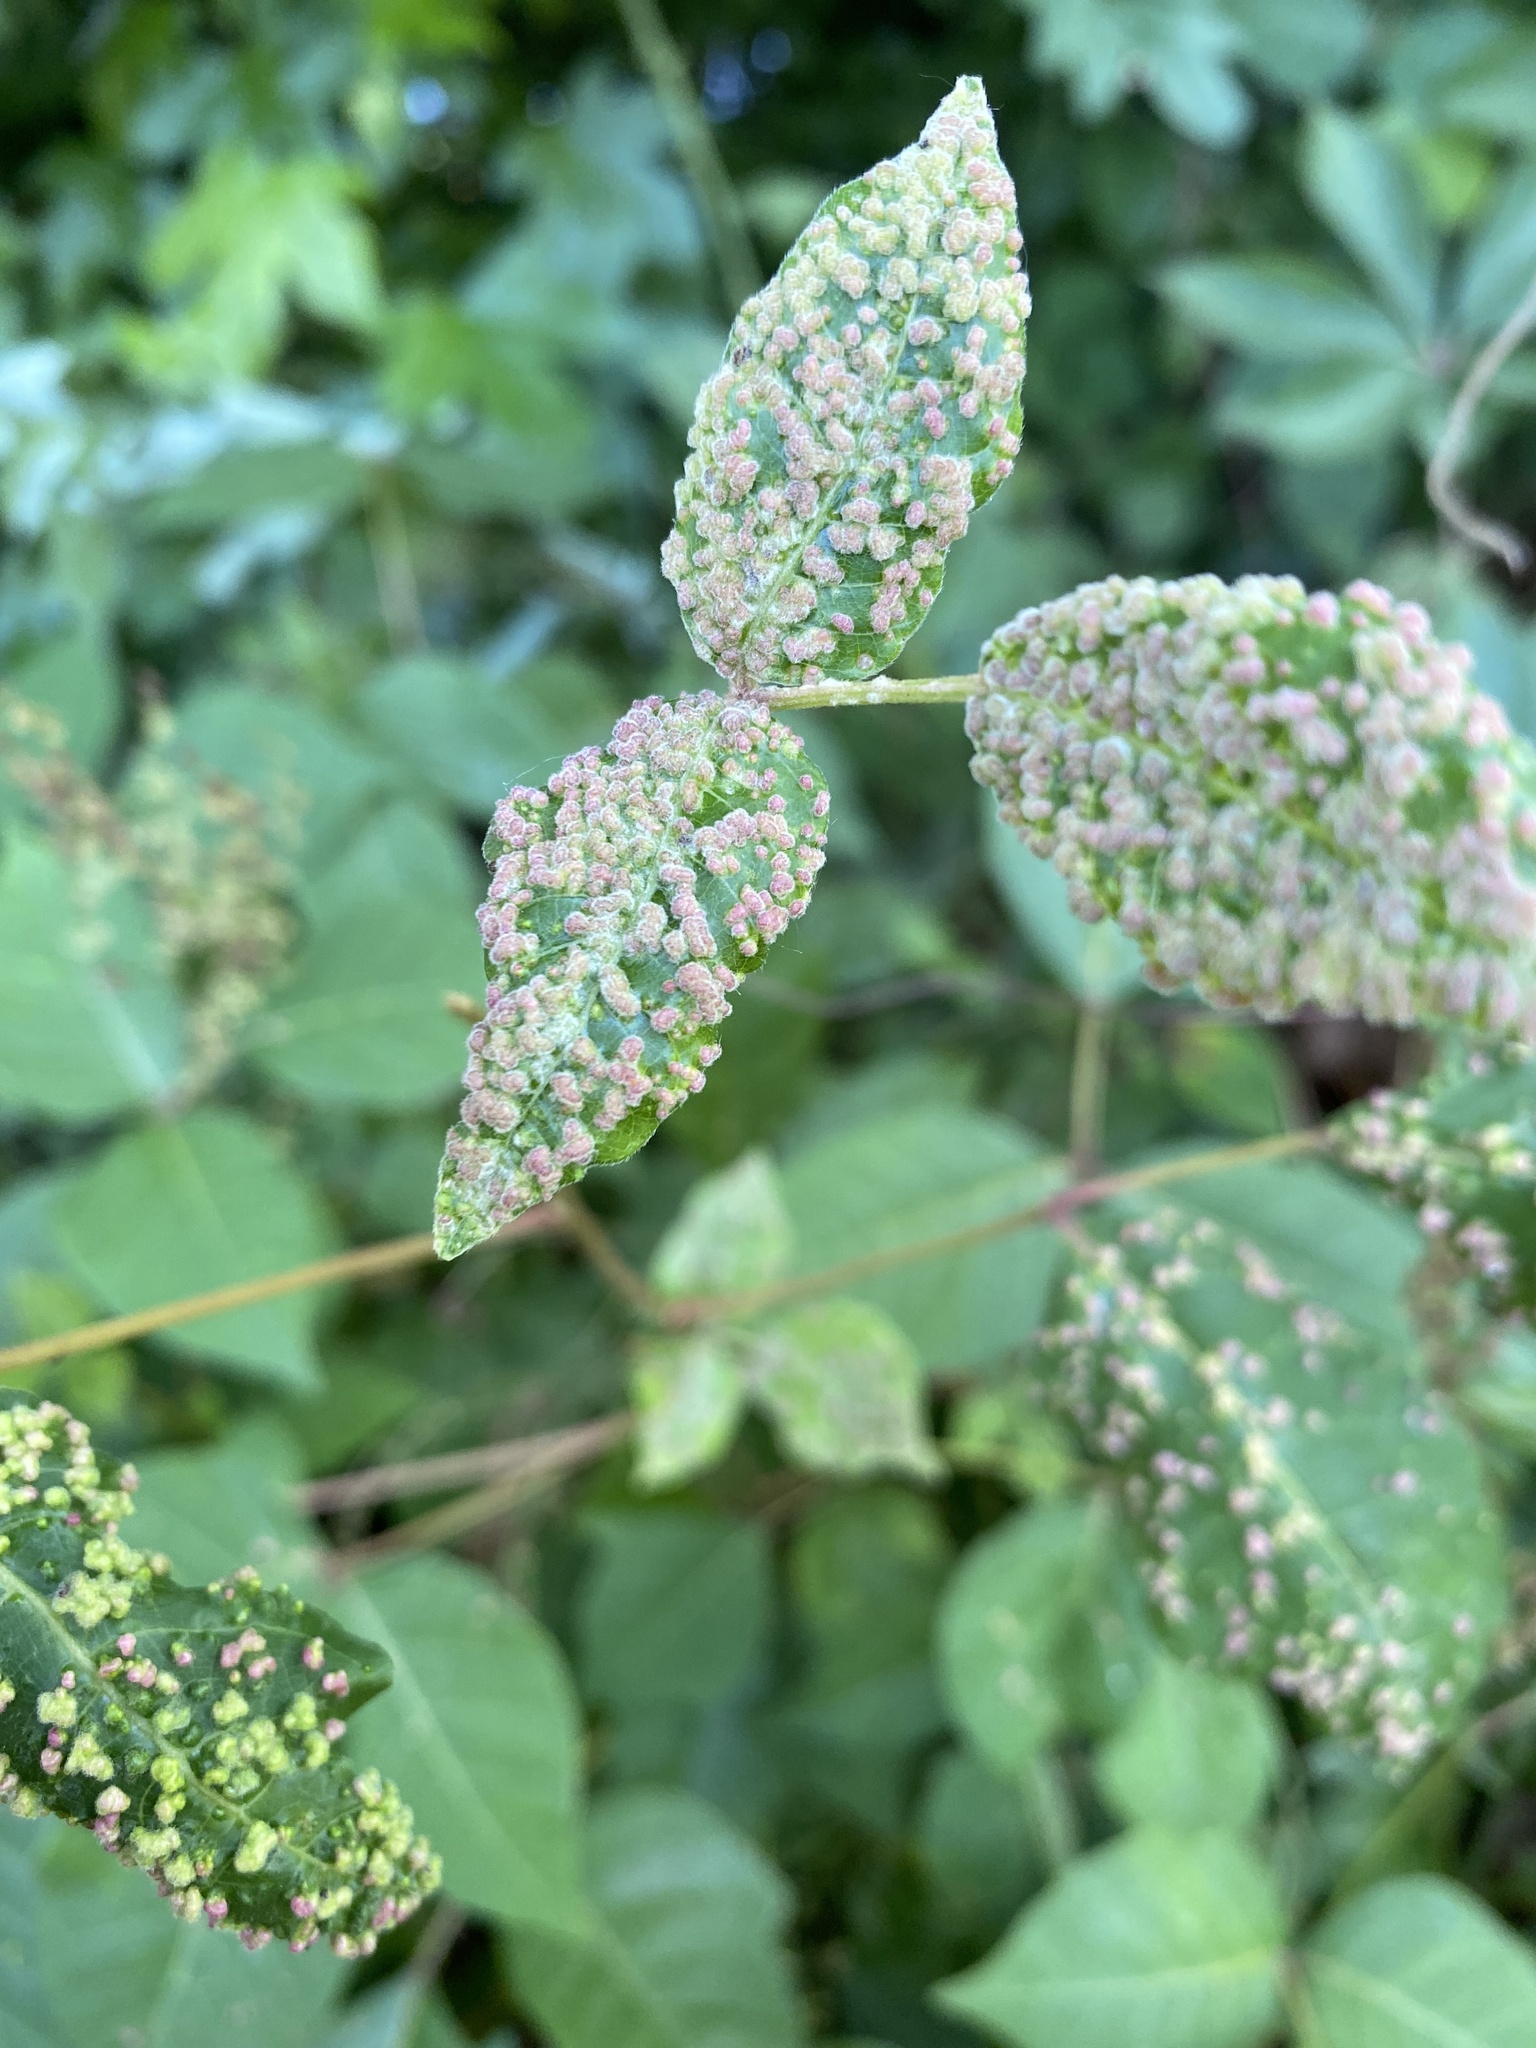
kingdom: Animalia
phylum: Arthropoda
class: Arachnida
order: Trombidiformes
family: Eriophyidae
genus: Aculops
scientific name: Aculops
